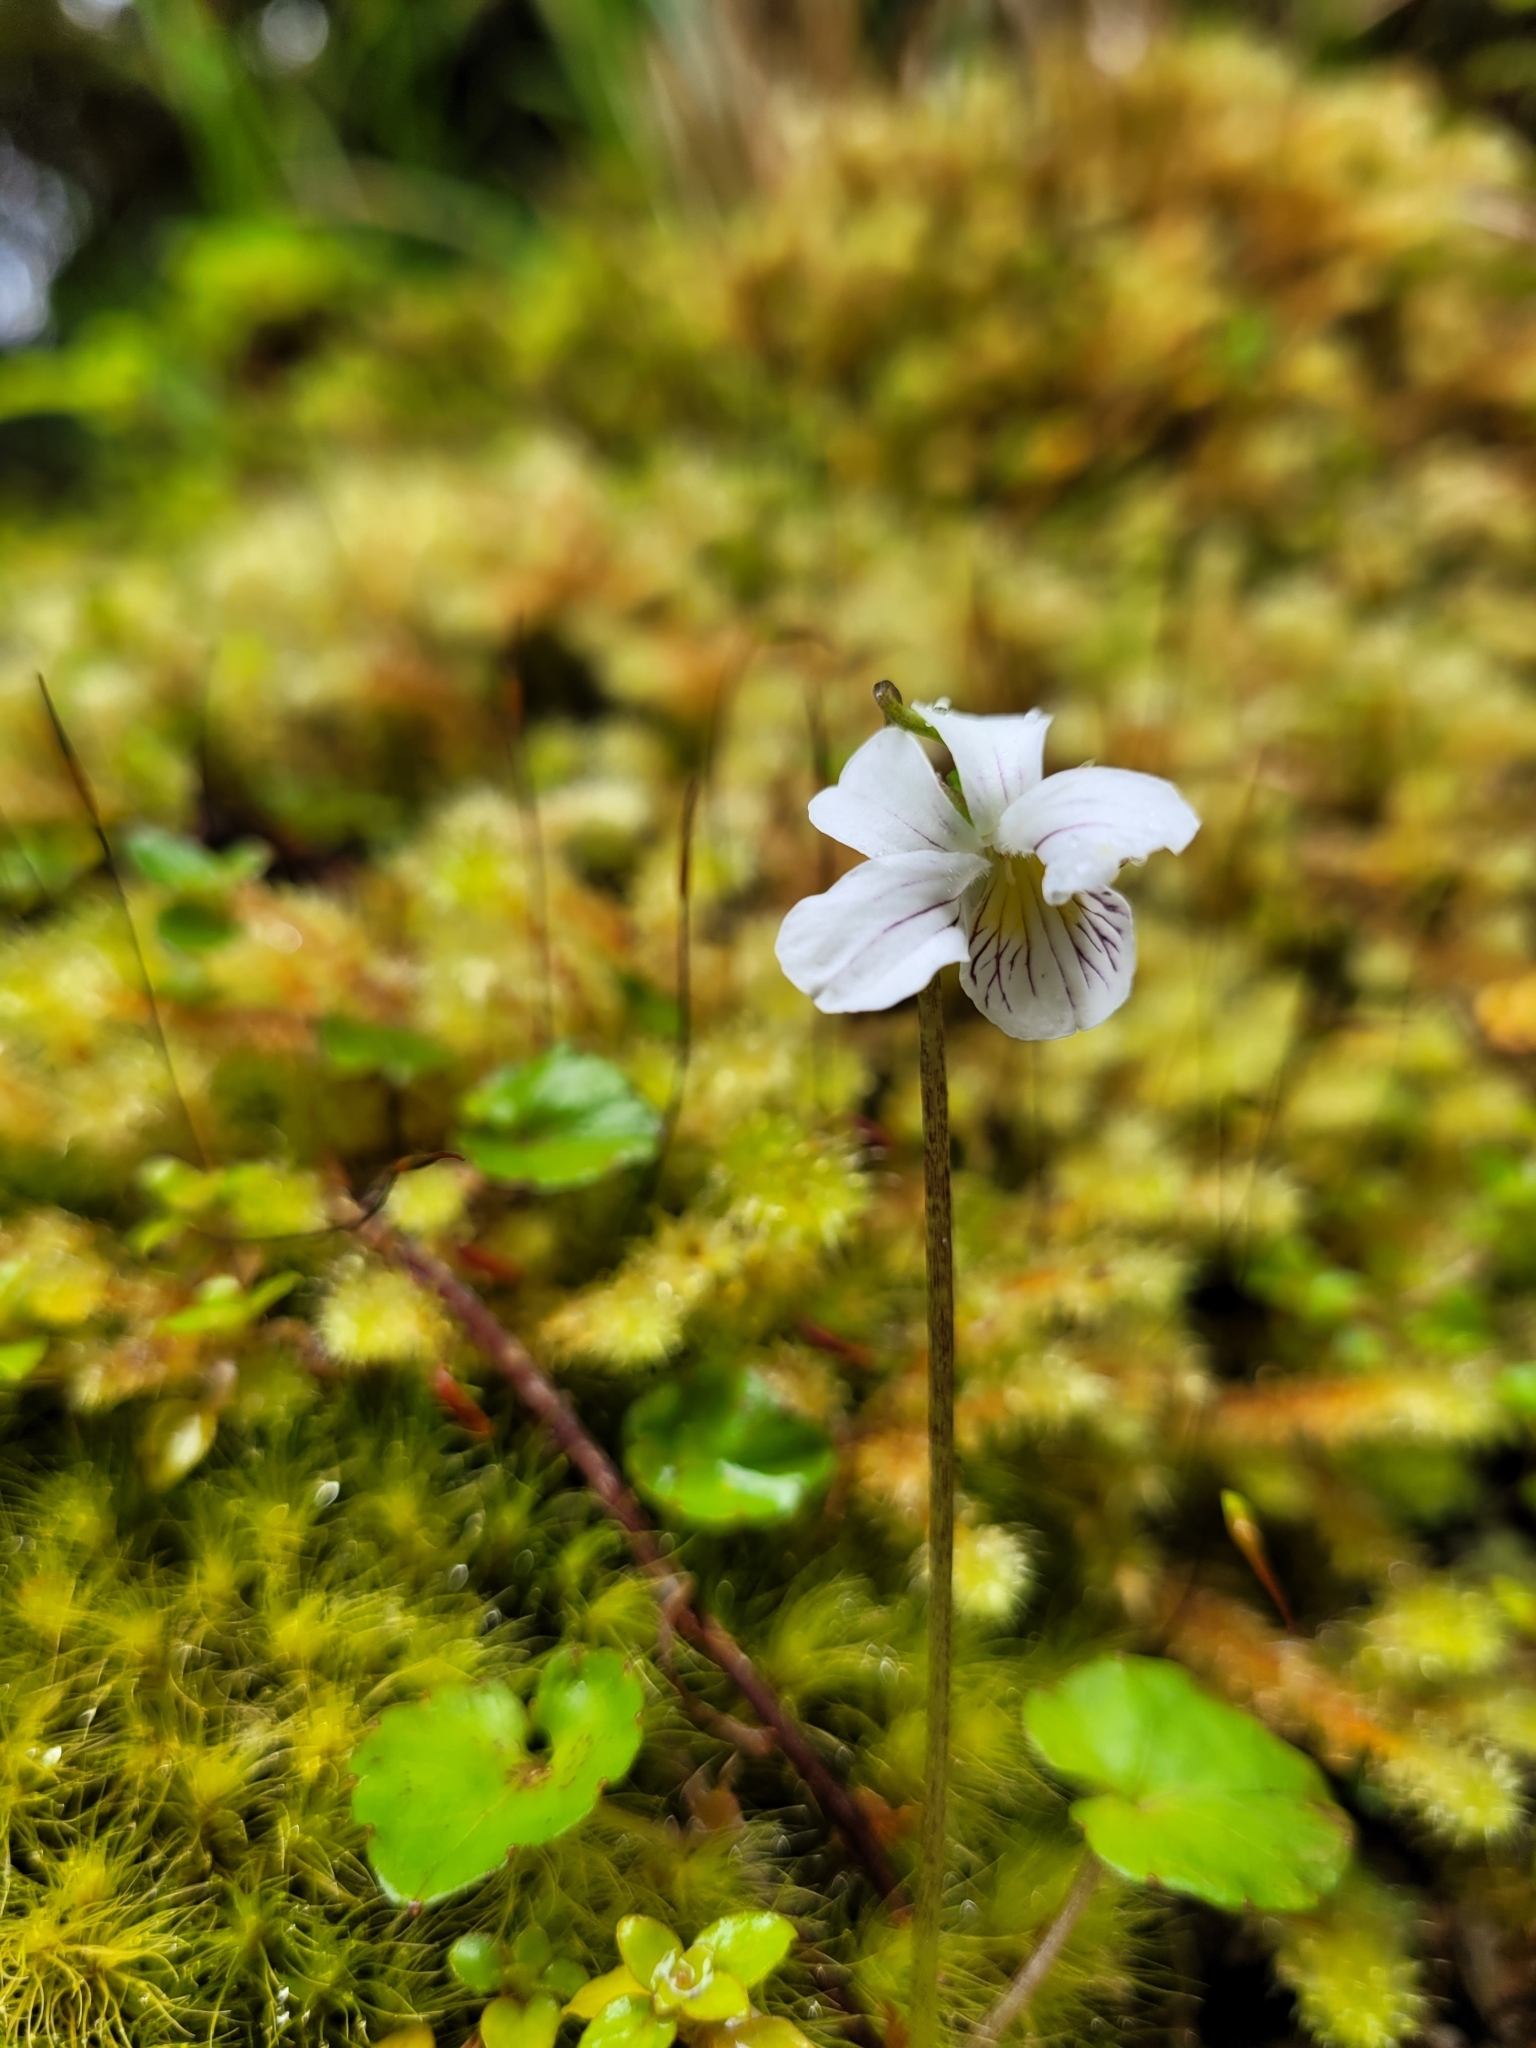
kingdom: Plantae
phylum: Tracheophyta
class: Magnoliopsida
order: Malpighiales
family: Violaceae
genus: Viola
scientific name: Viola cunninghamii
